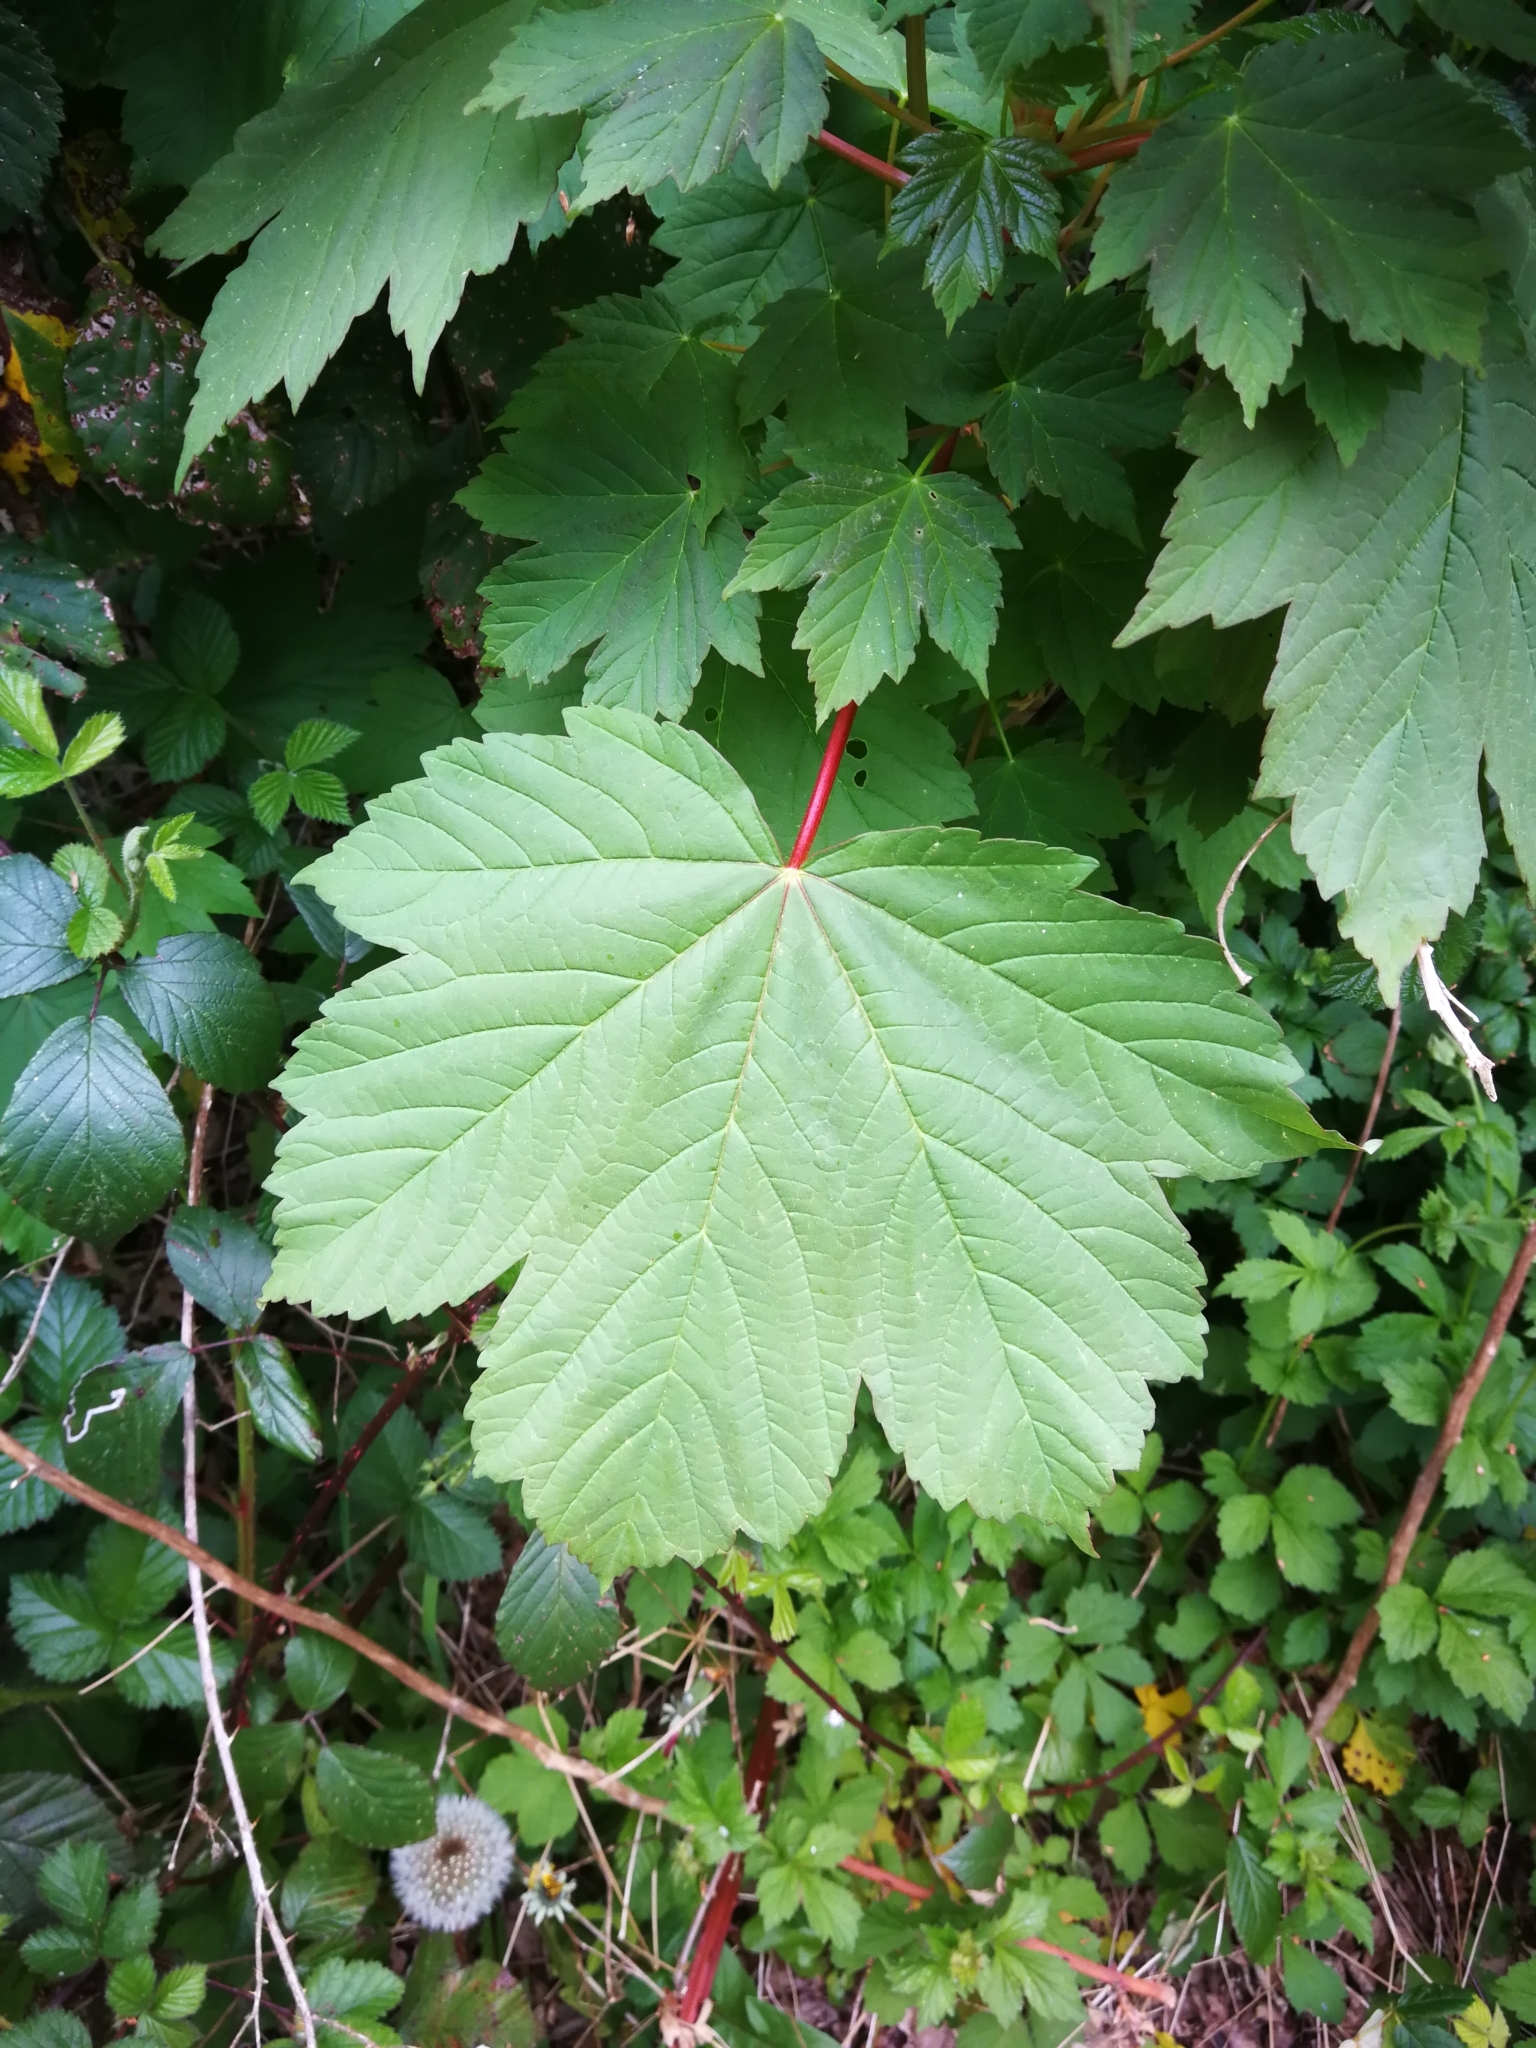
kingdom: Plantae
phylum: Tracheophyta
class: Magnoliopsida
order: Sapindales
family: Sapindaceae
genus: Acer
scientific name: Acer pseudoplatanus
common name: Sycamore
